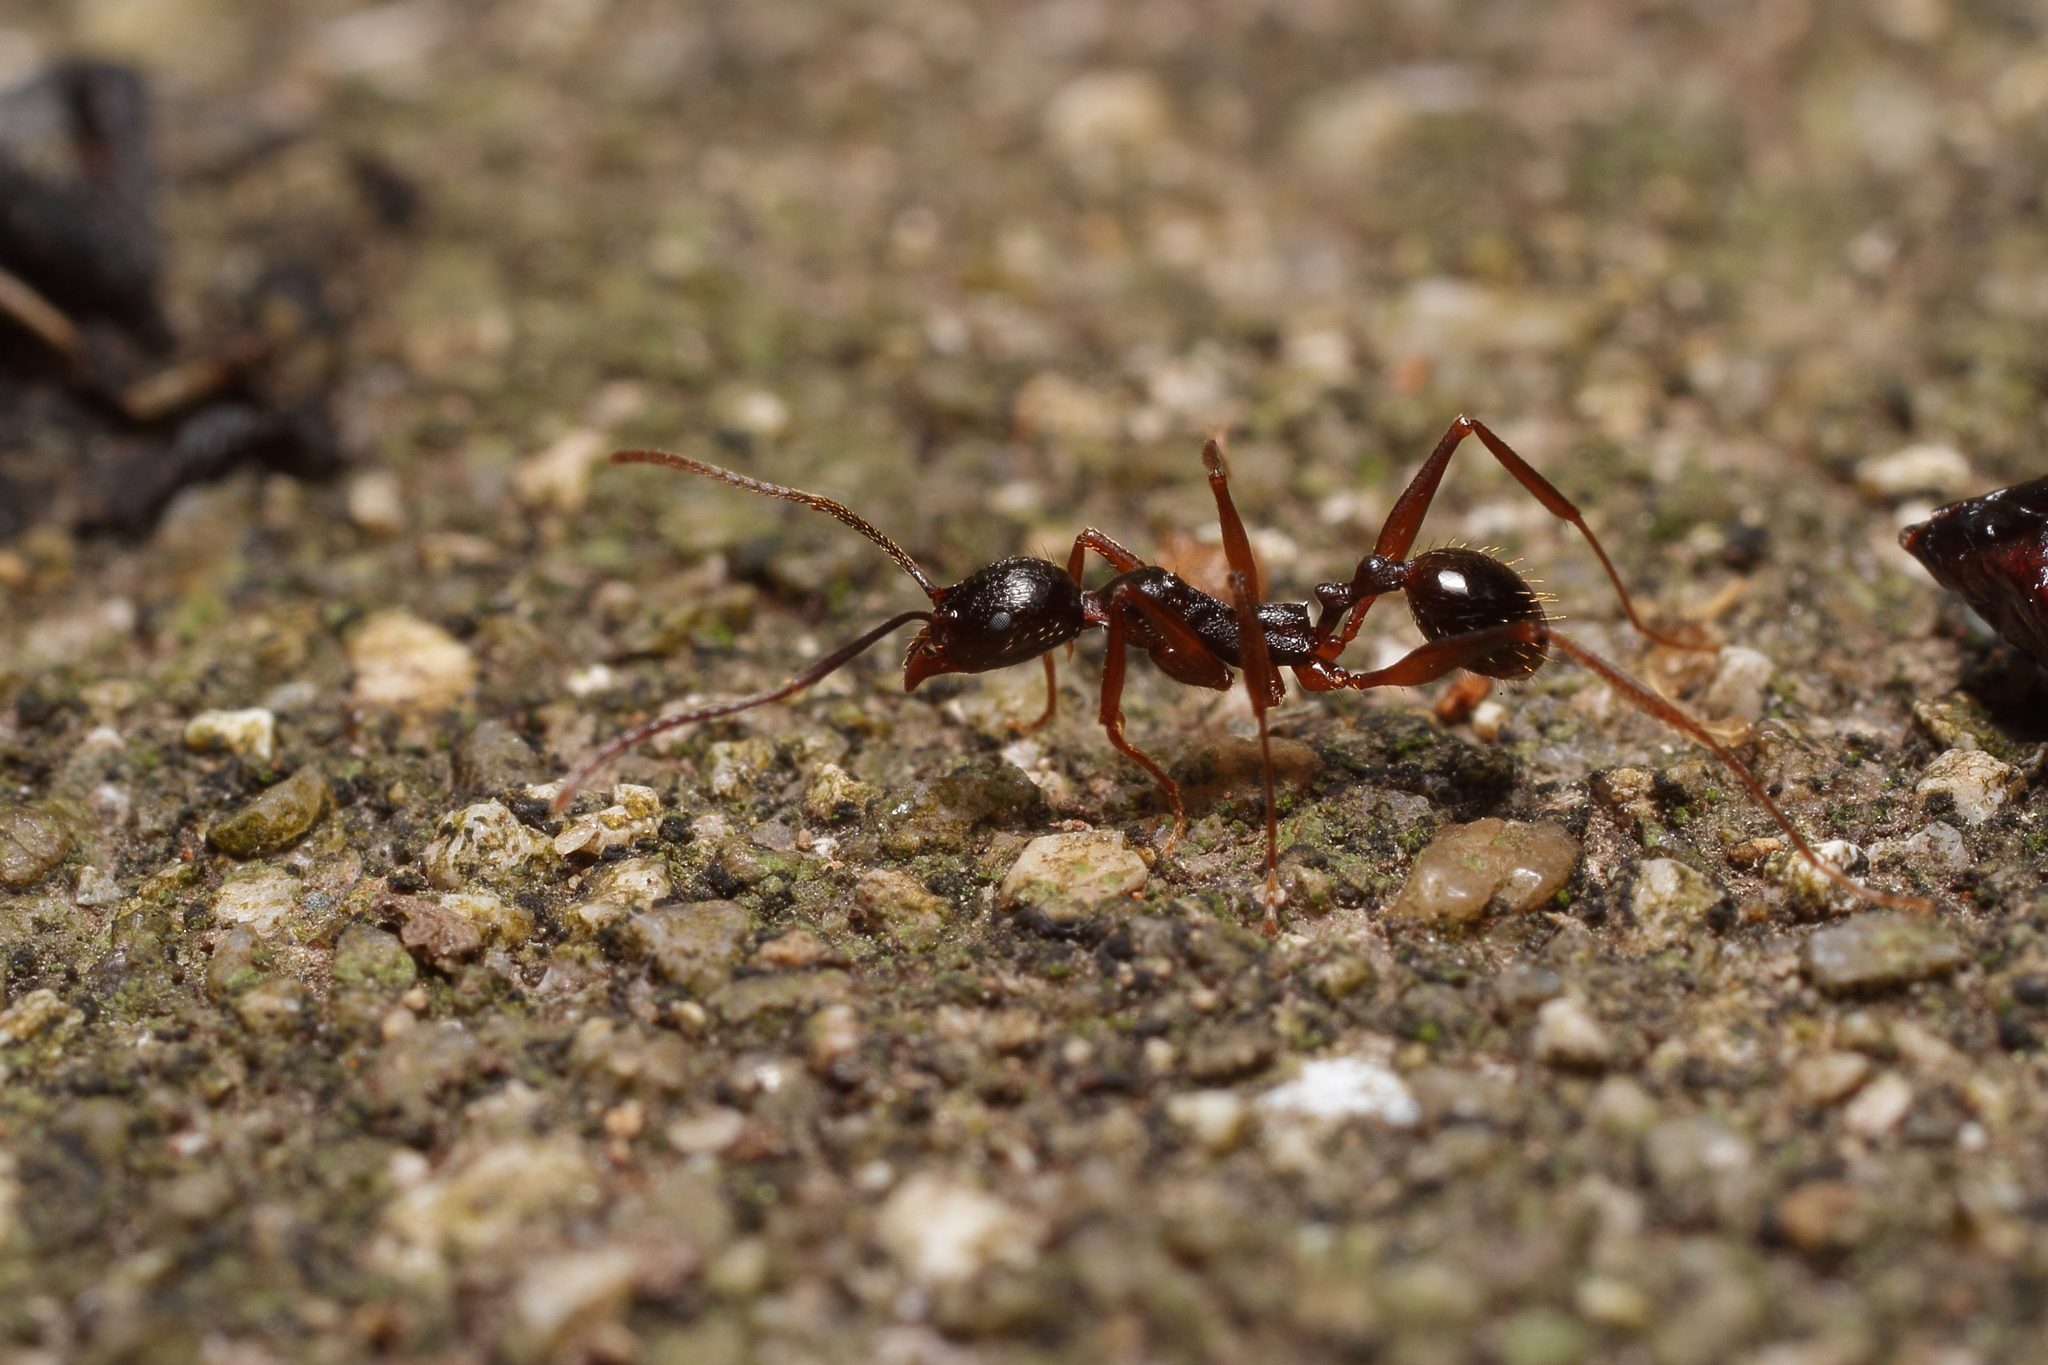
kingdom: Animalia
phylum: Arthropoda
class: Insecta
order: Hymenoptera
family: Formicidae
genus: Aphaenogaster
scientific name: Aphaenogaster famelica
